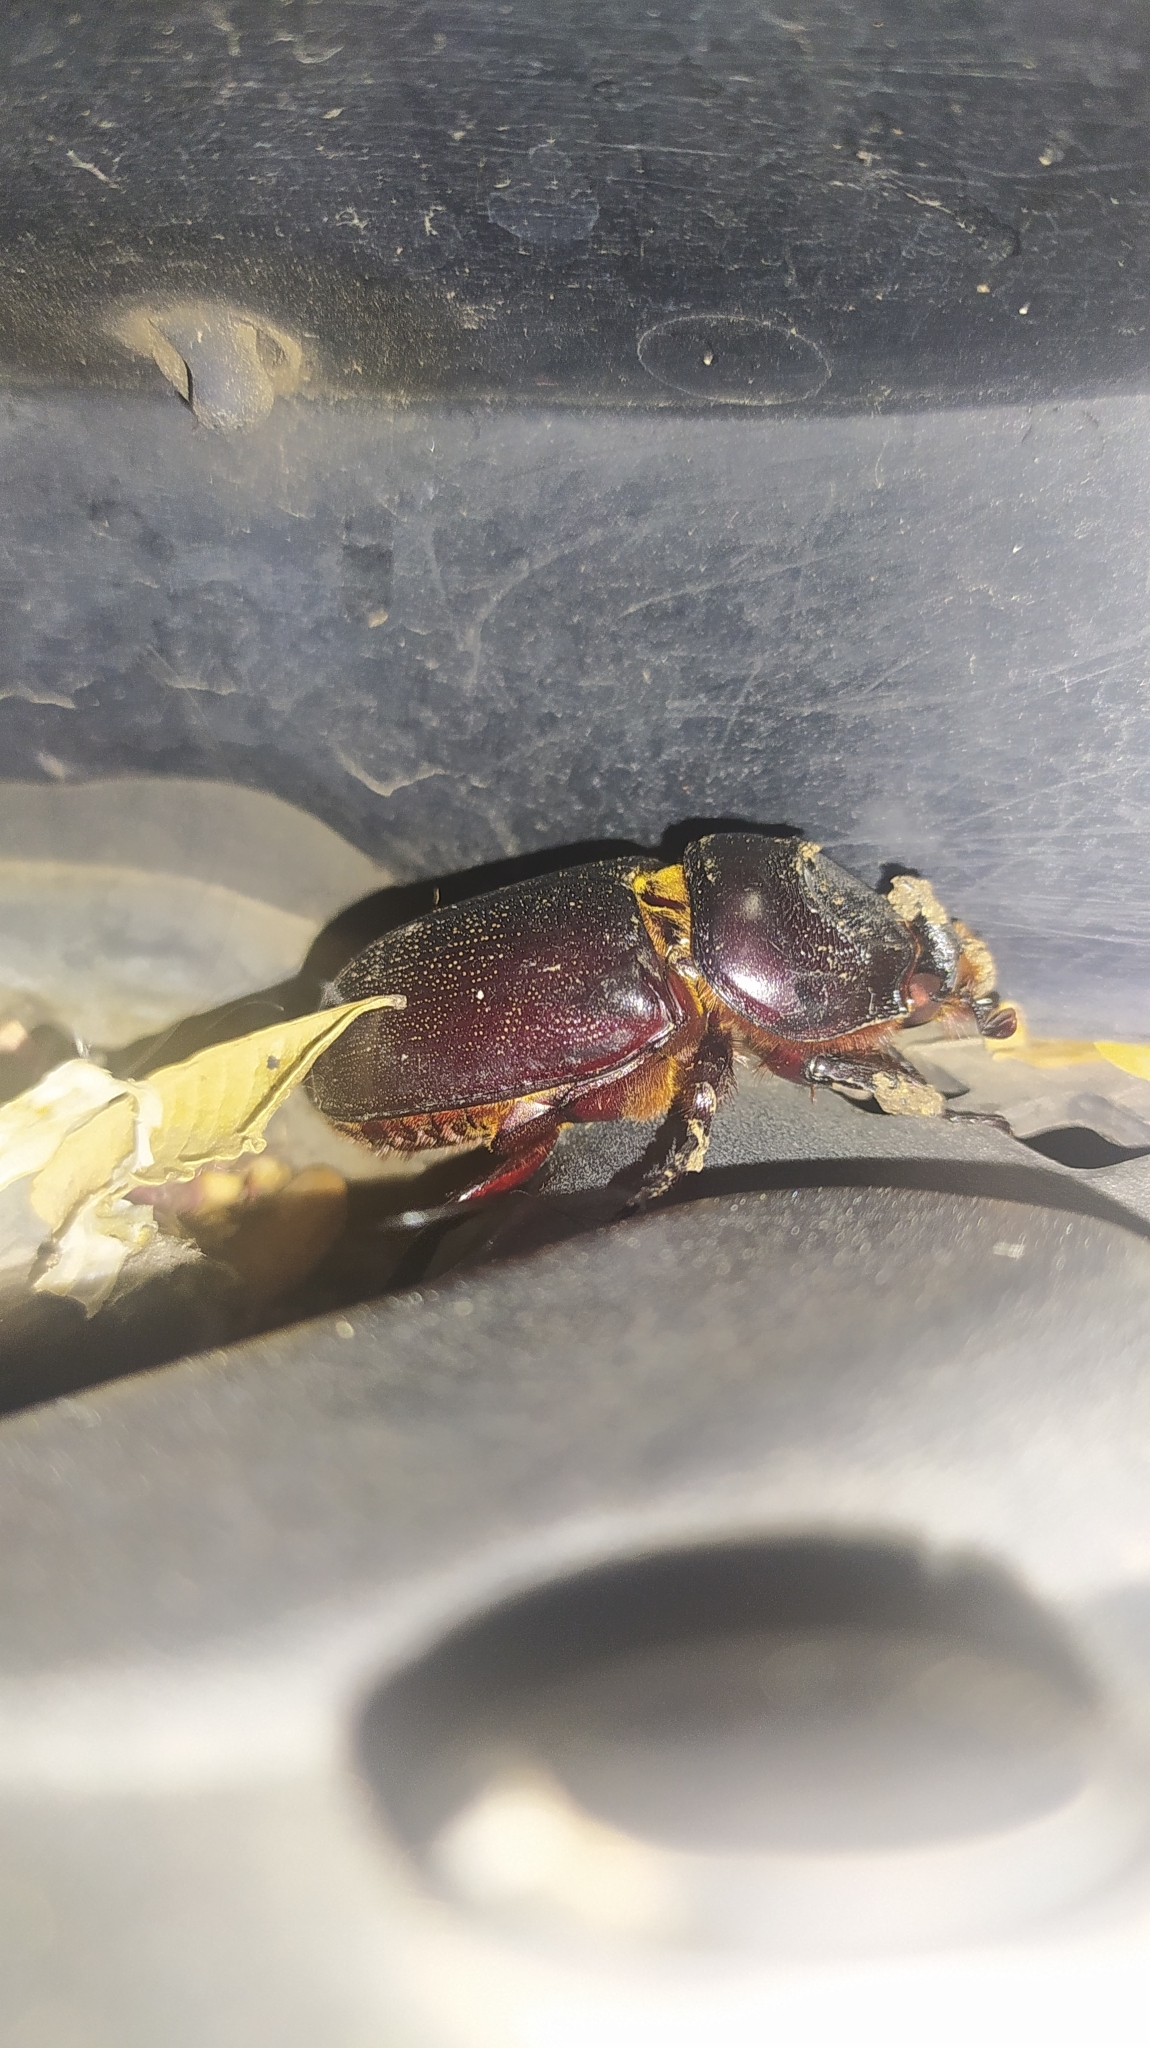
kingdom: Animalia
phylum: Arthropoda
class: Insecta
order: Coleoptera
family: Scarabaeidae
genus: Oryctes
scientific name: Oryctes rhinoceros
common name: Coconut rhinoceros beetle
